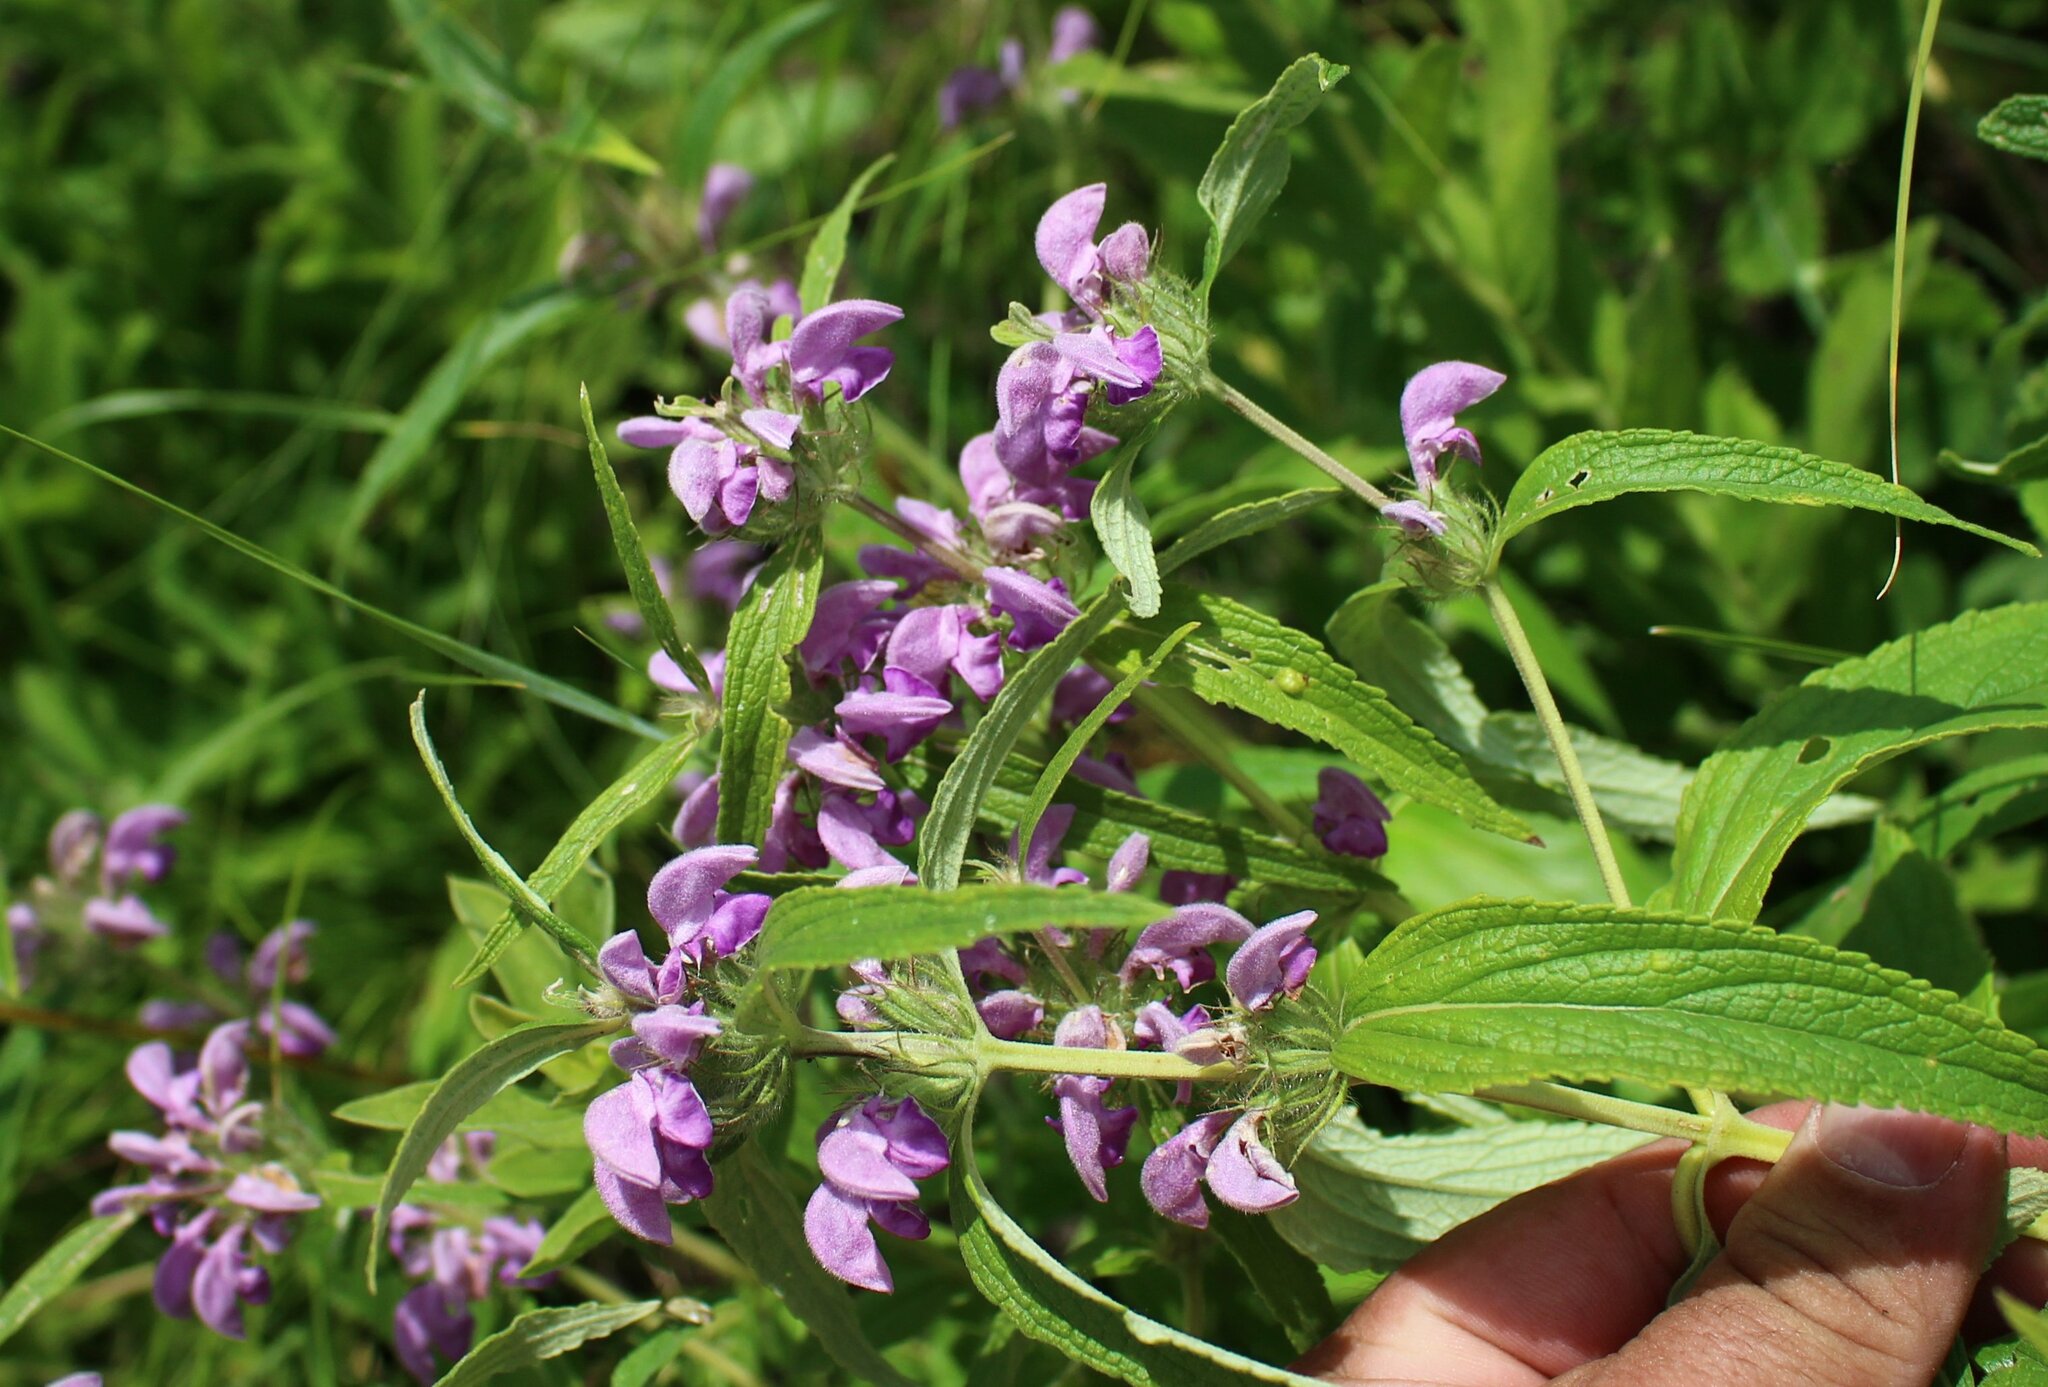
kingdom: Plantae
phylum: Tracheophyta
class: Magnoliopsida
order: Lamiales
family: Lamiaceae
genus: Phlomis
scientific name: Phlomis herba-venti
